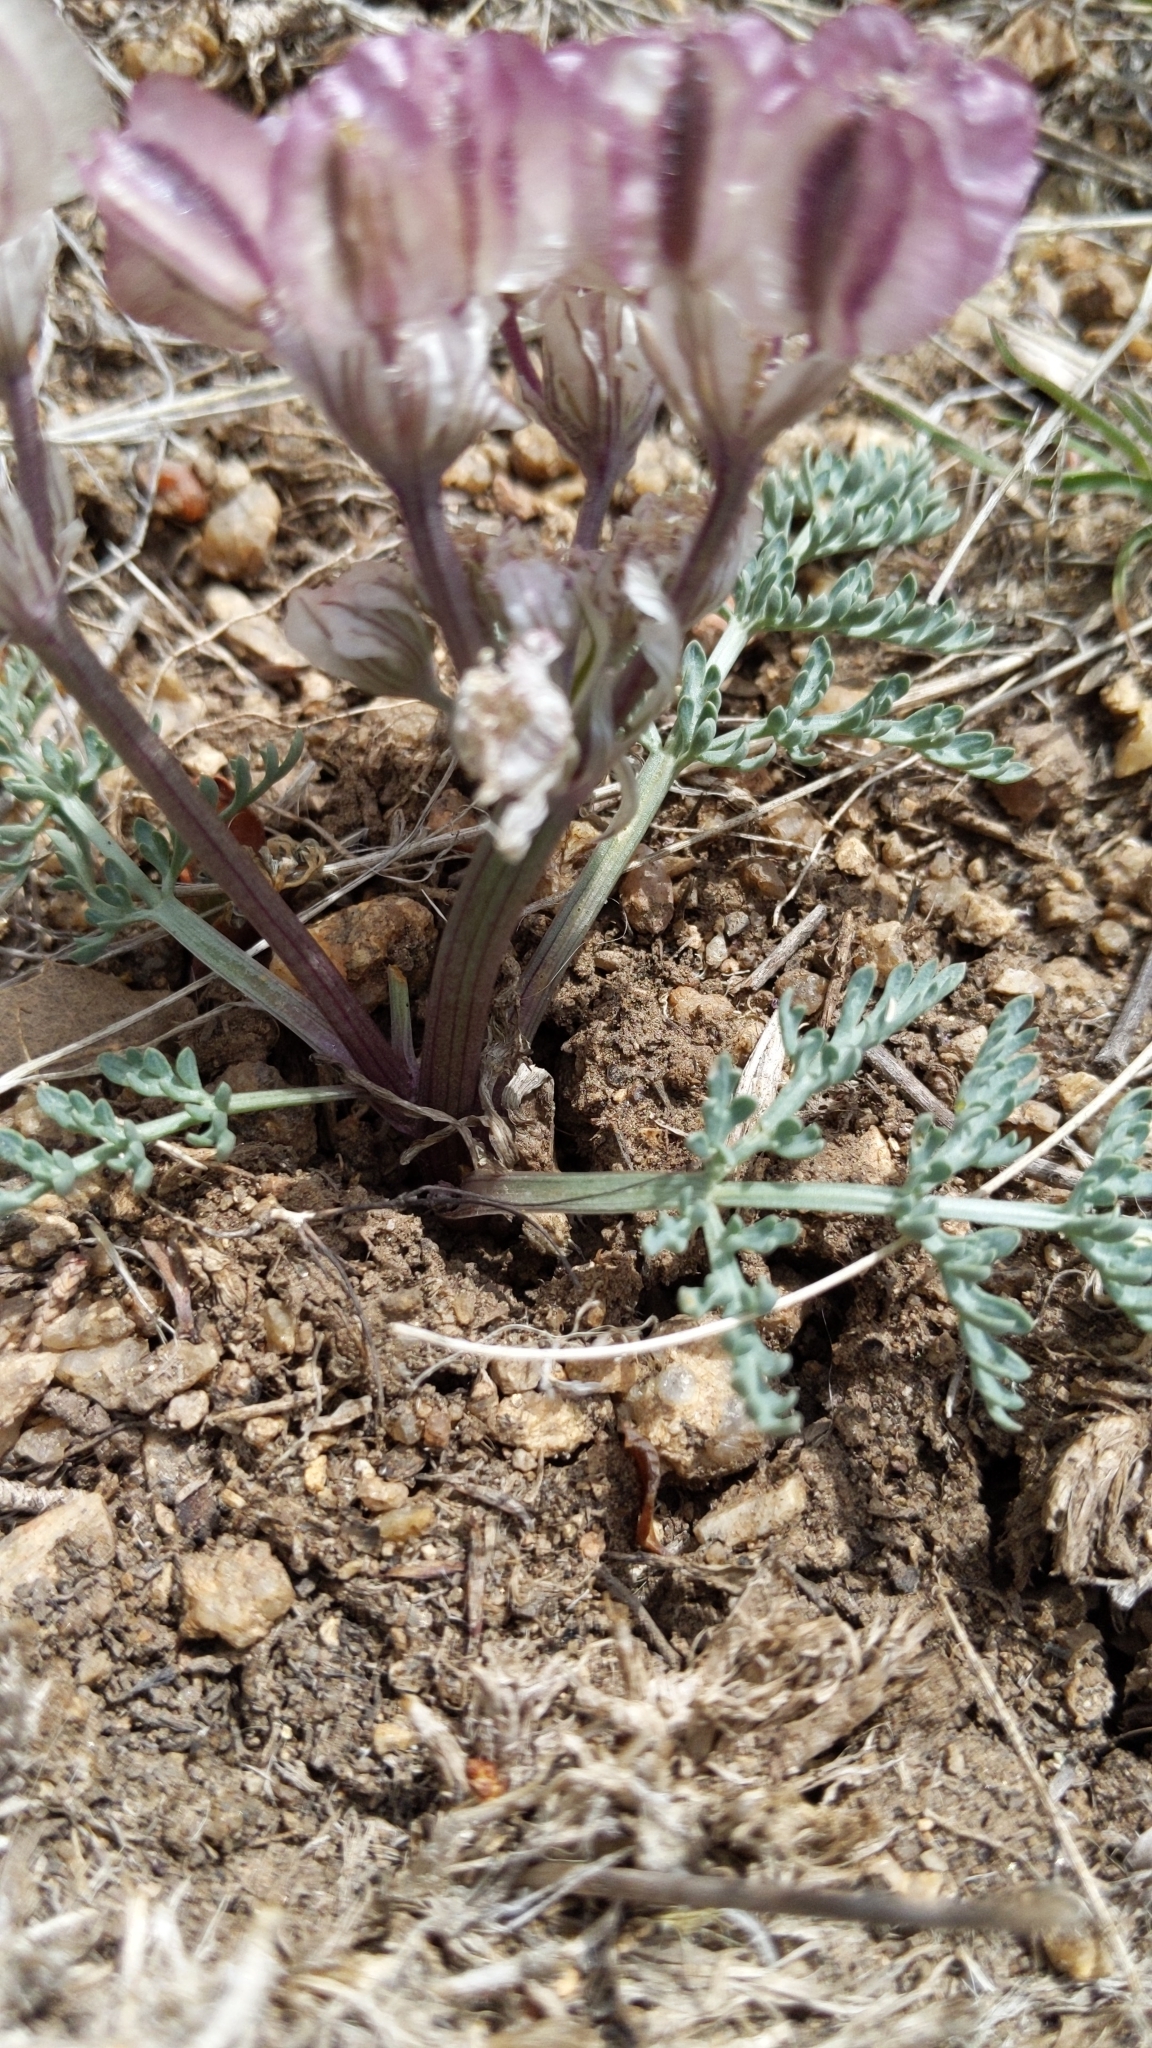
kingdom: Plantae
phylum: Tracheophyta
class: Magnoliopsida
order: Apiales
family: Apiaceae
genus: Vesper
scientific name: Vesper constancei
